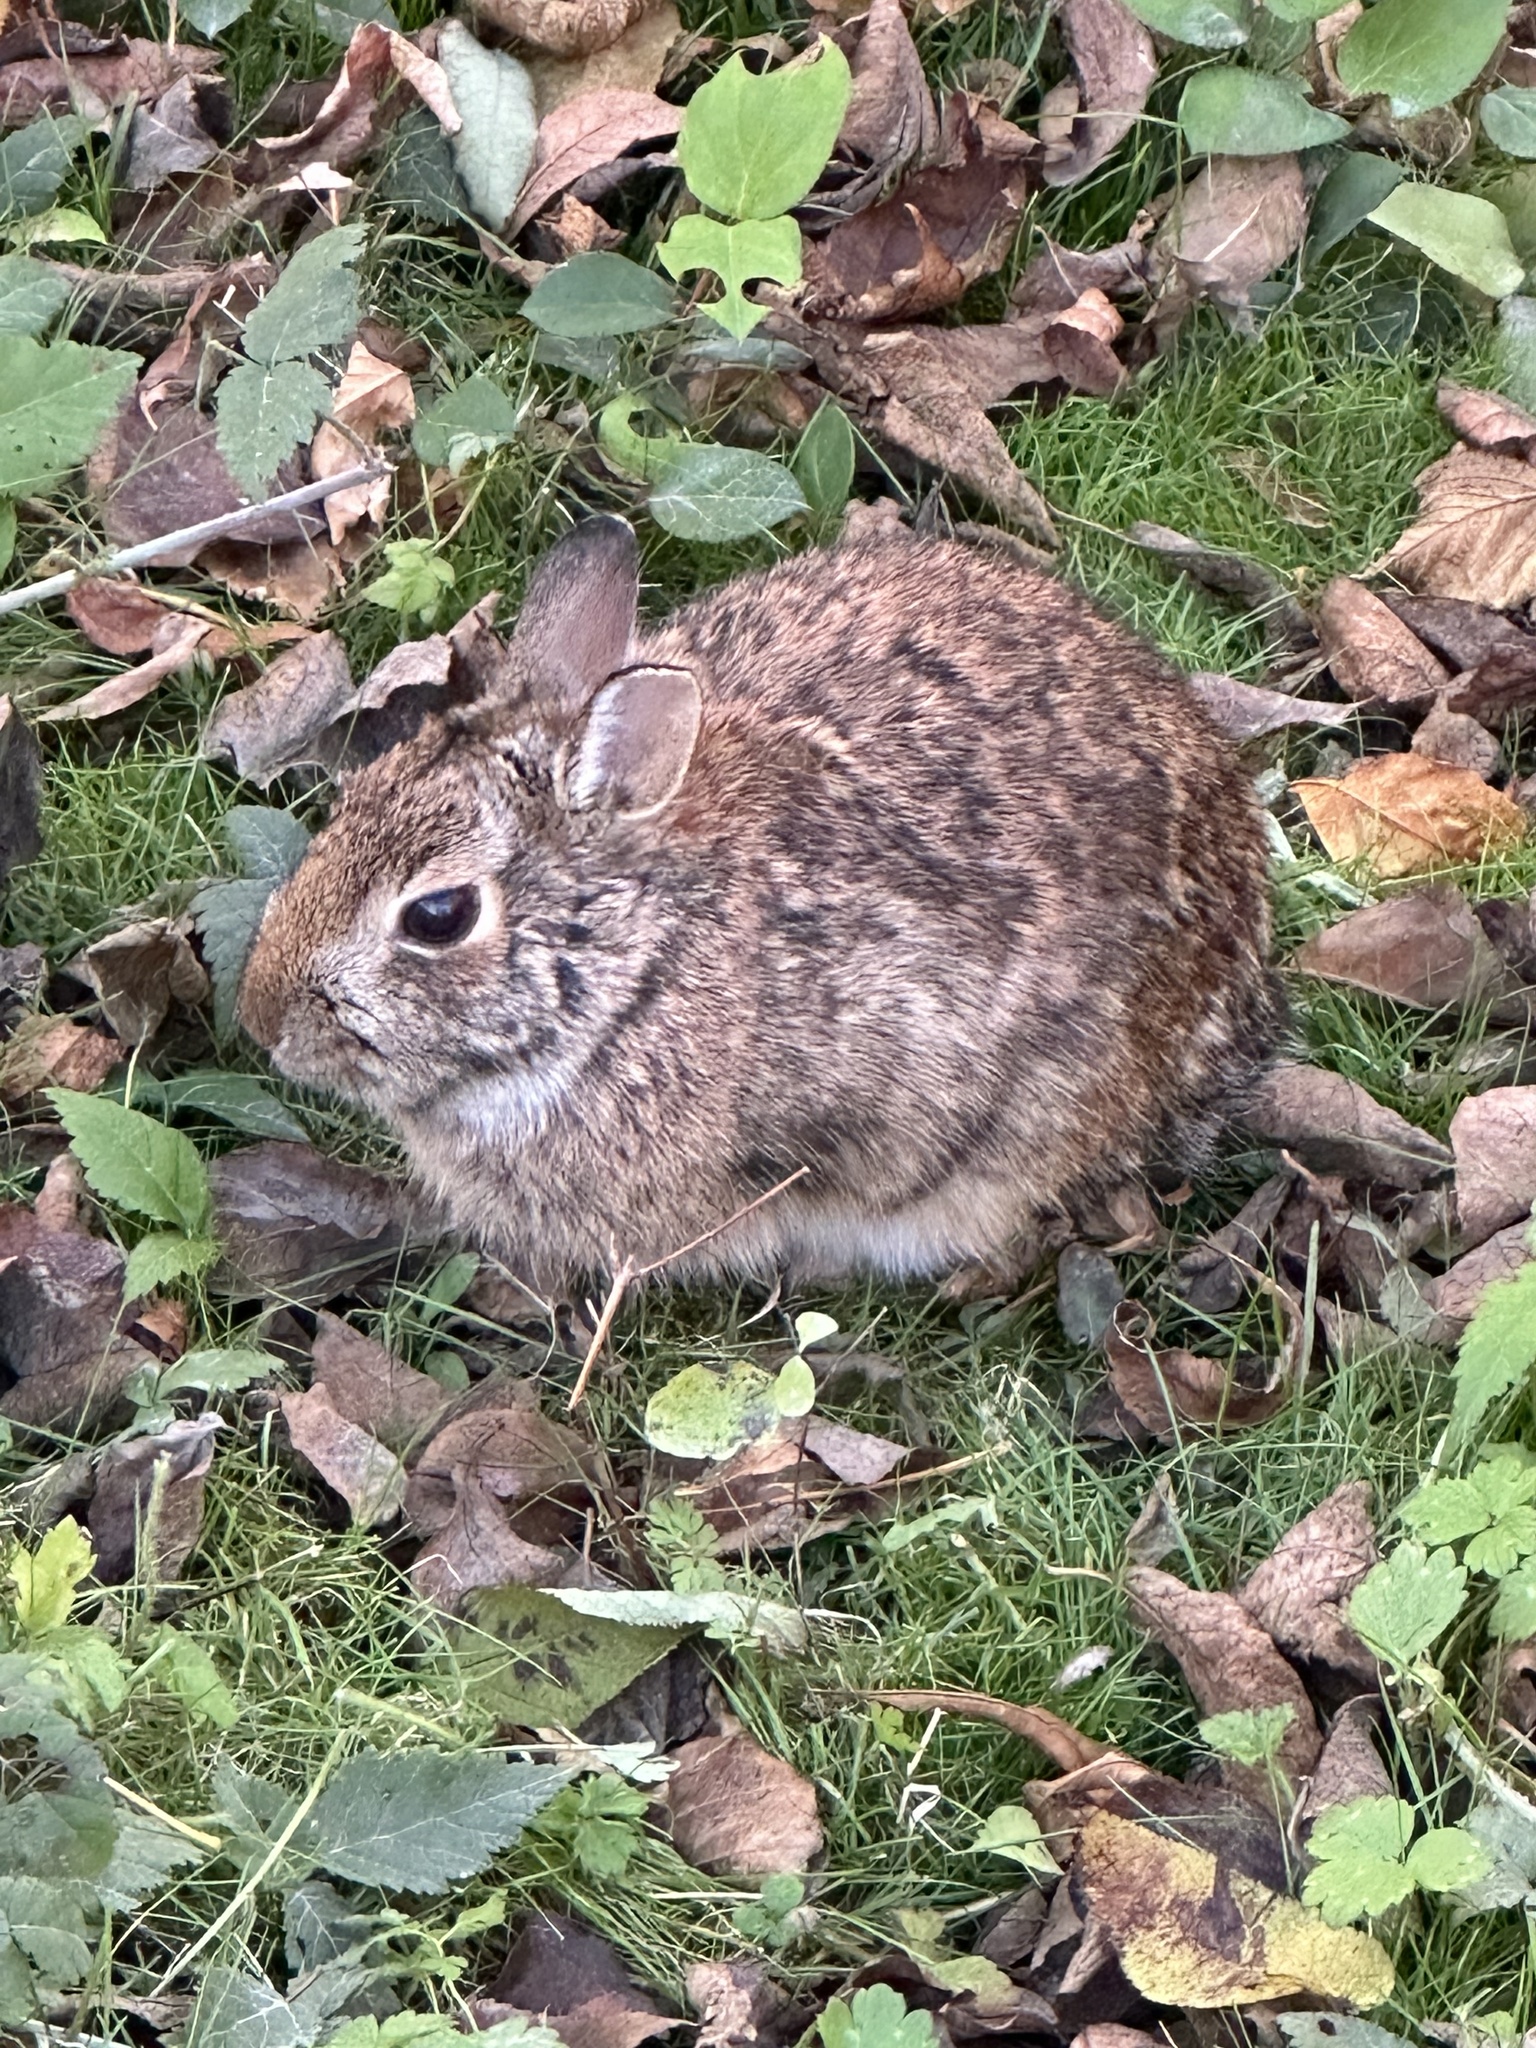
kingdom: Animalia
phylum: Chordata
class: Mammalia
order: Lagomorpha
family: Leporidae
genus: Sylvilagus
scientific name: Sylvilagus floridanus
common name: Eastern cottontail
